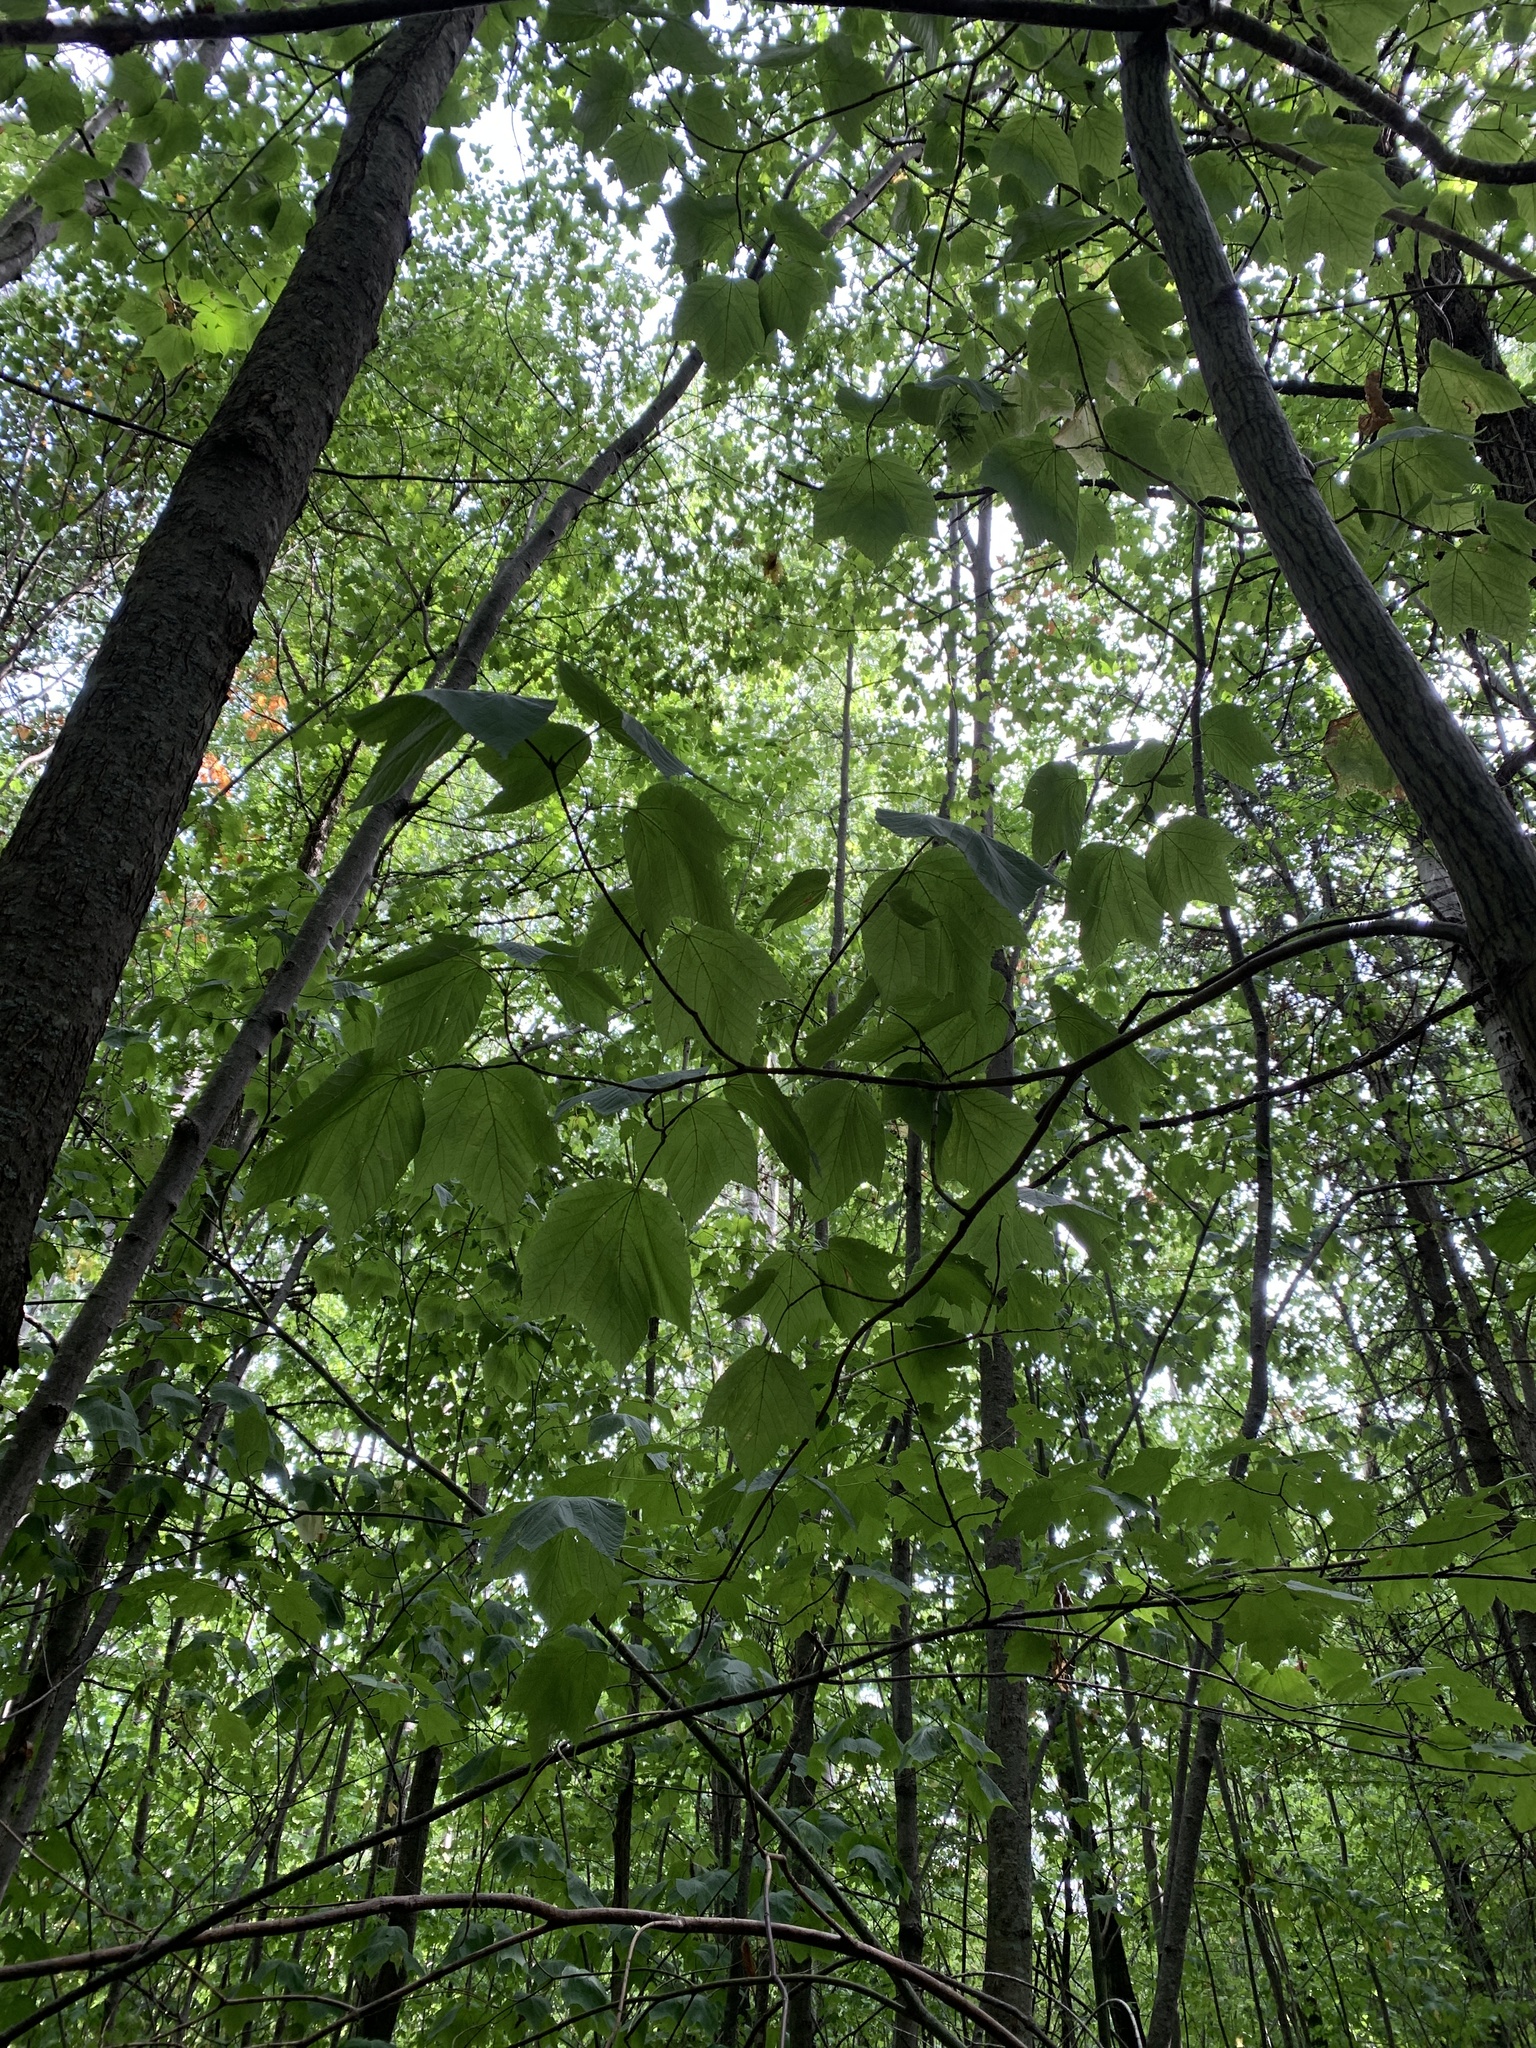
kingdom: Plantae
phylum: Tracheophyta
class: Magnoliopsida
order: Sapindales
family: Sapindaceae
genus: Acer
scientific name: Acer pensylvanicum
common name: Moosewood
